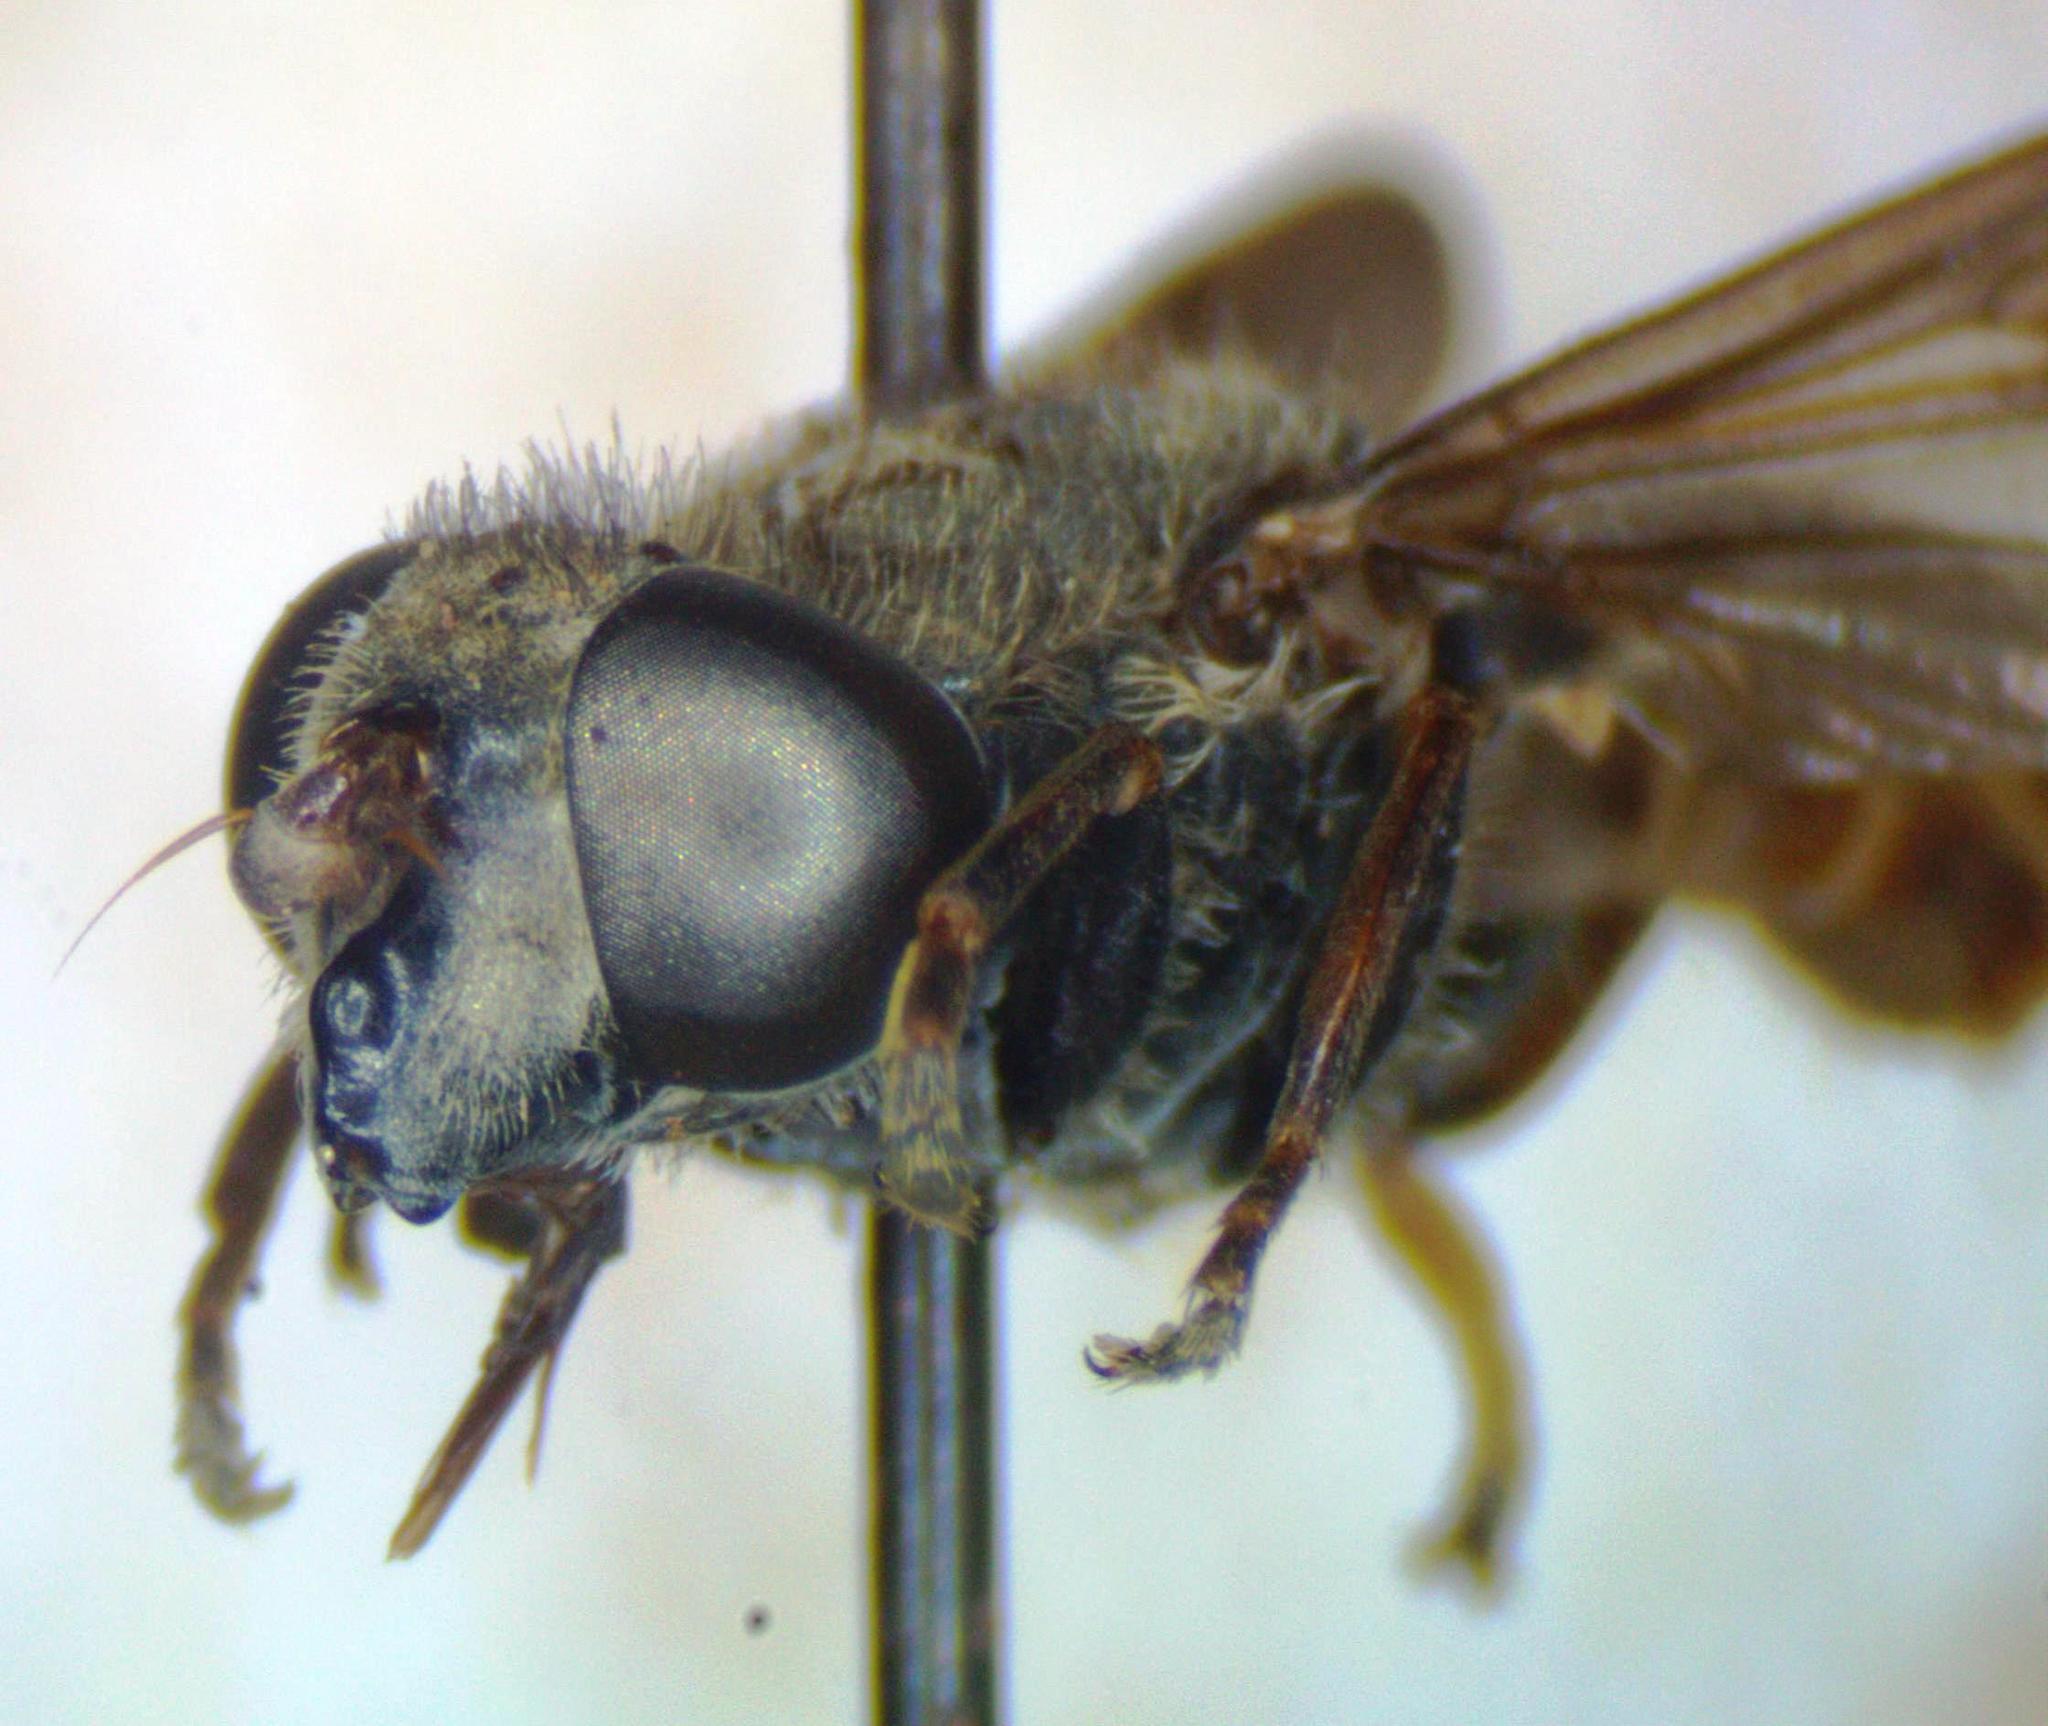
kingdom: Animalia
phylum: Arthropoda
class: Insecta
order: Diptera
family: Syrphidae
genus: Asemosyrphus
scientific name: Asemosyrphus
